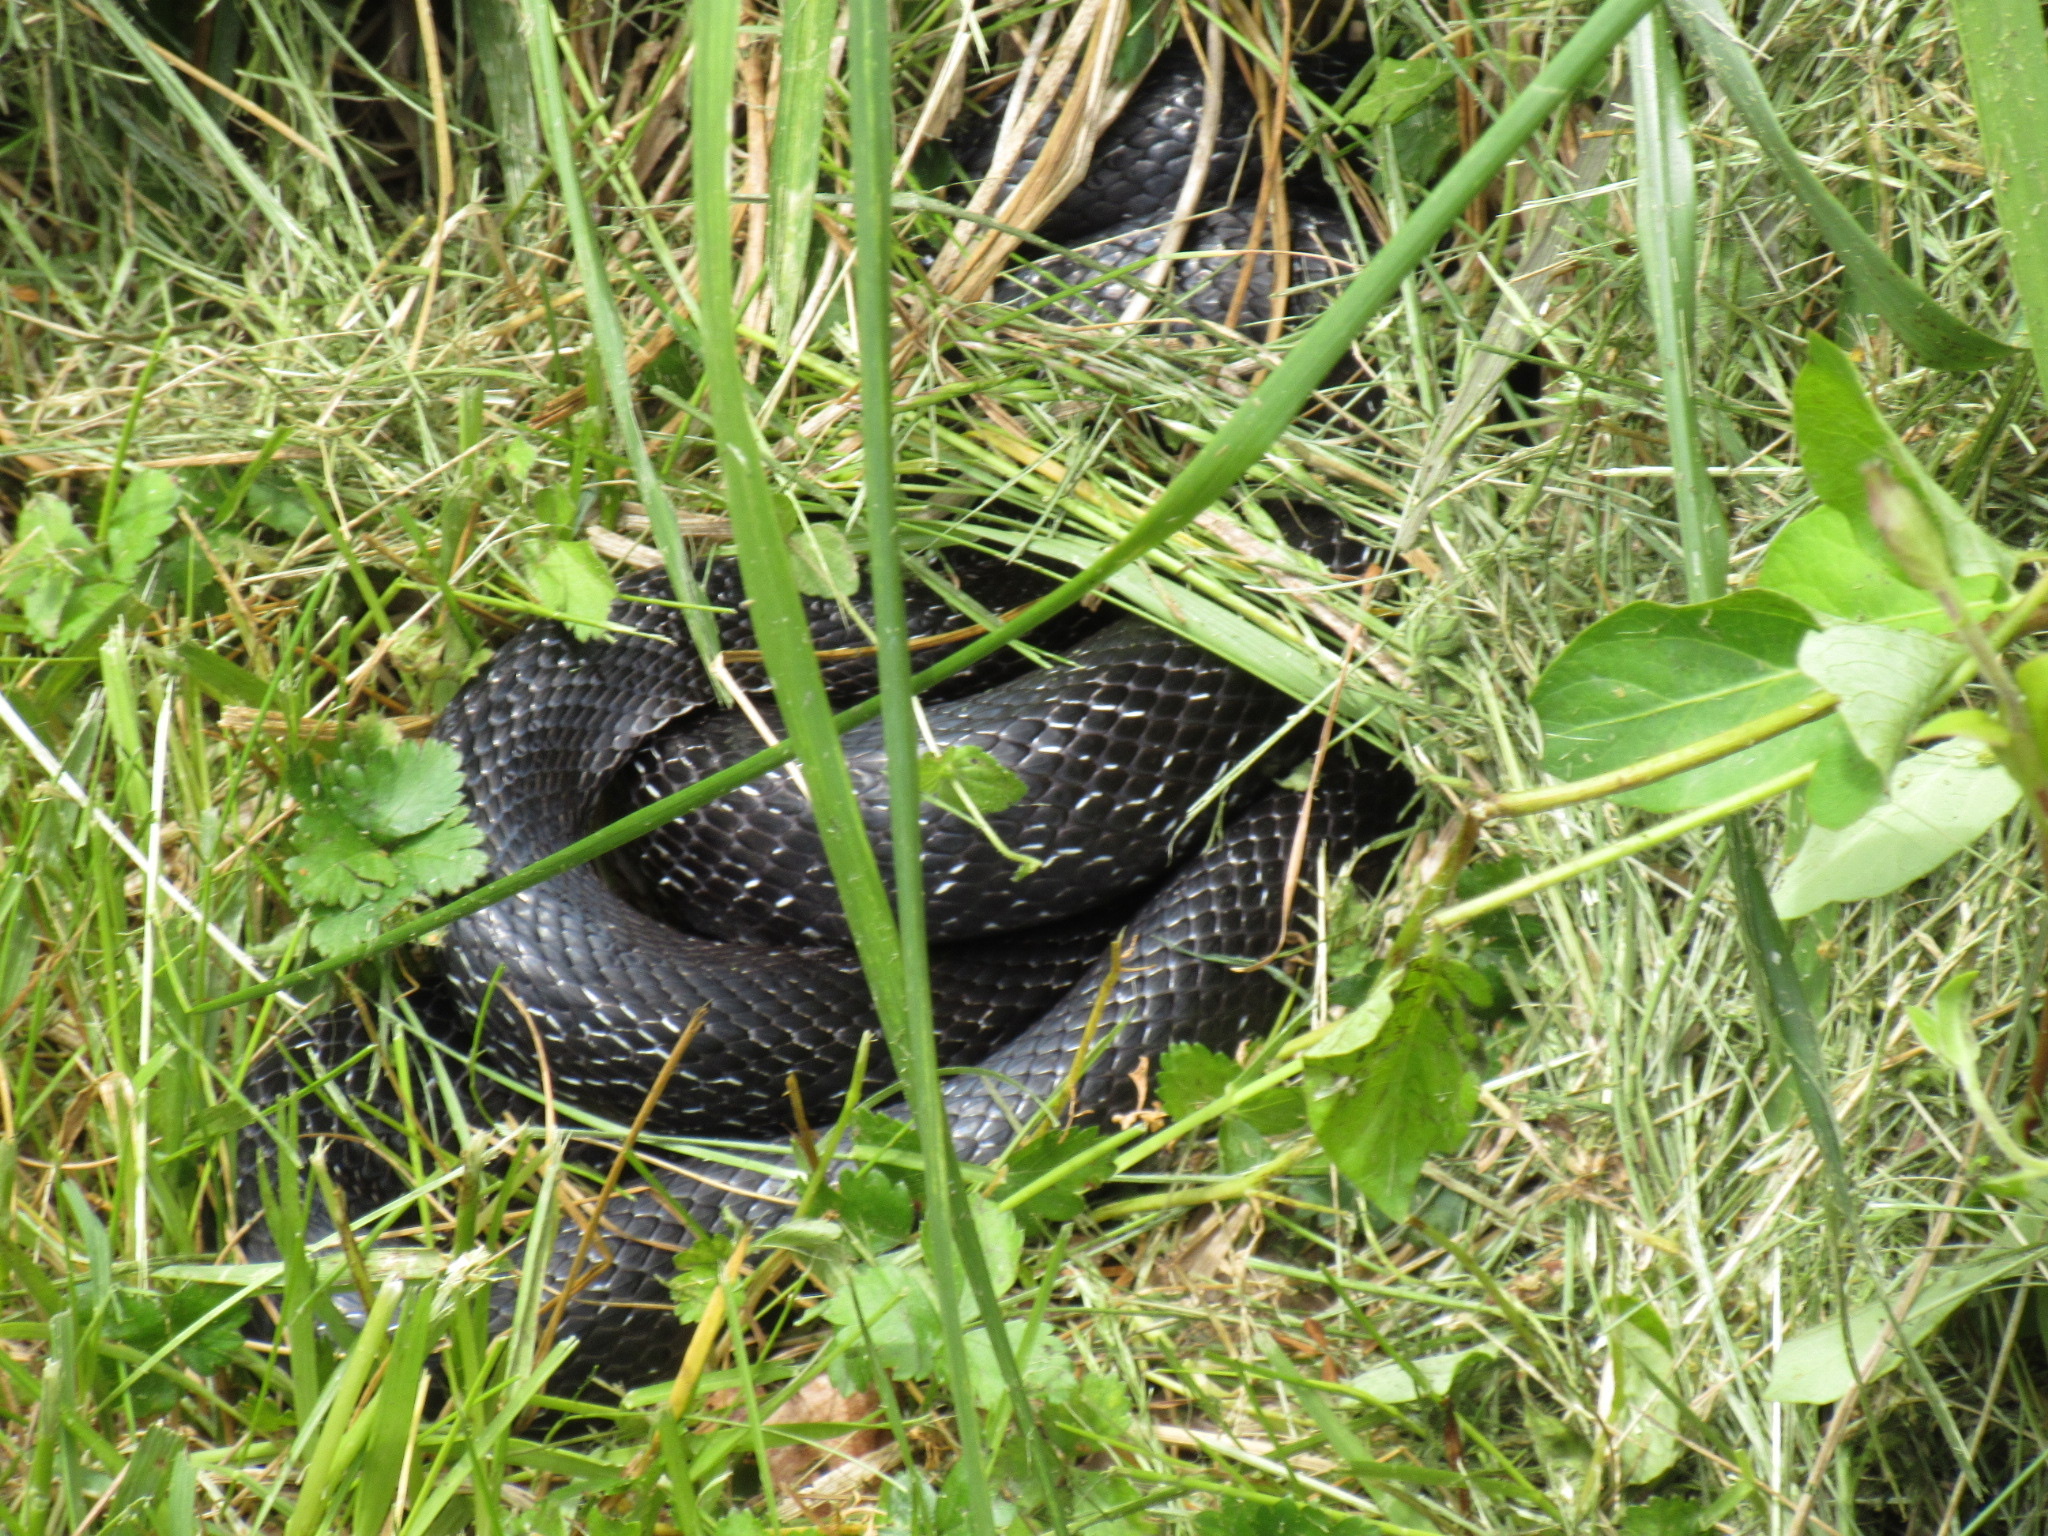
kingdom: Animalia
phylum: Chordata
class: Squamata
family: Colubridae
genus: Pantherophis
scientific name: Pantherophis alleghaniensis
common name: Eastern rat snake
